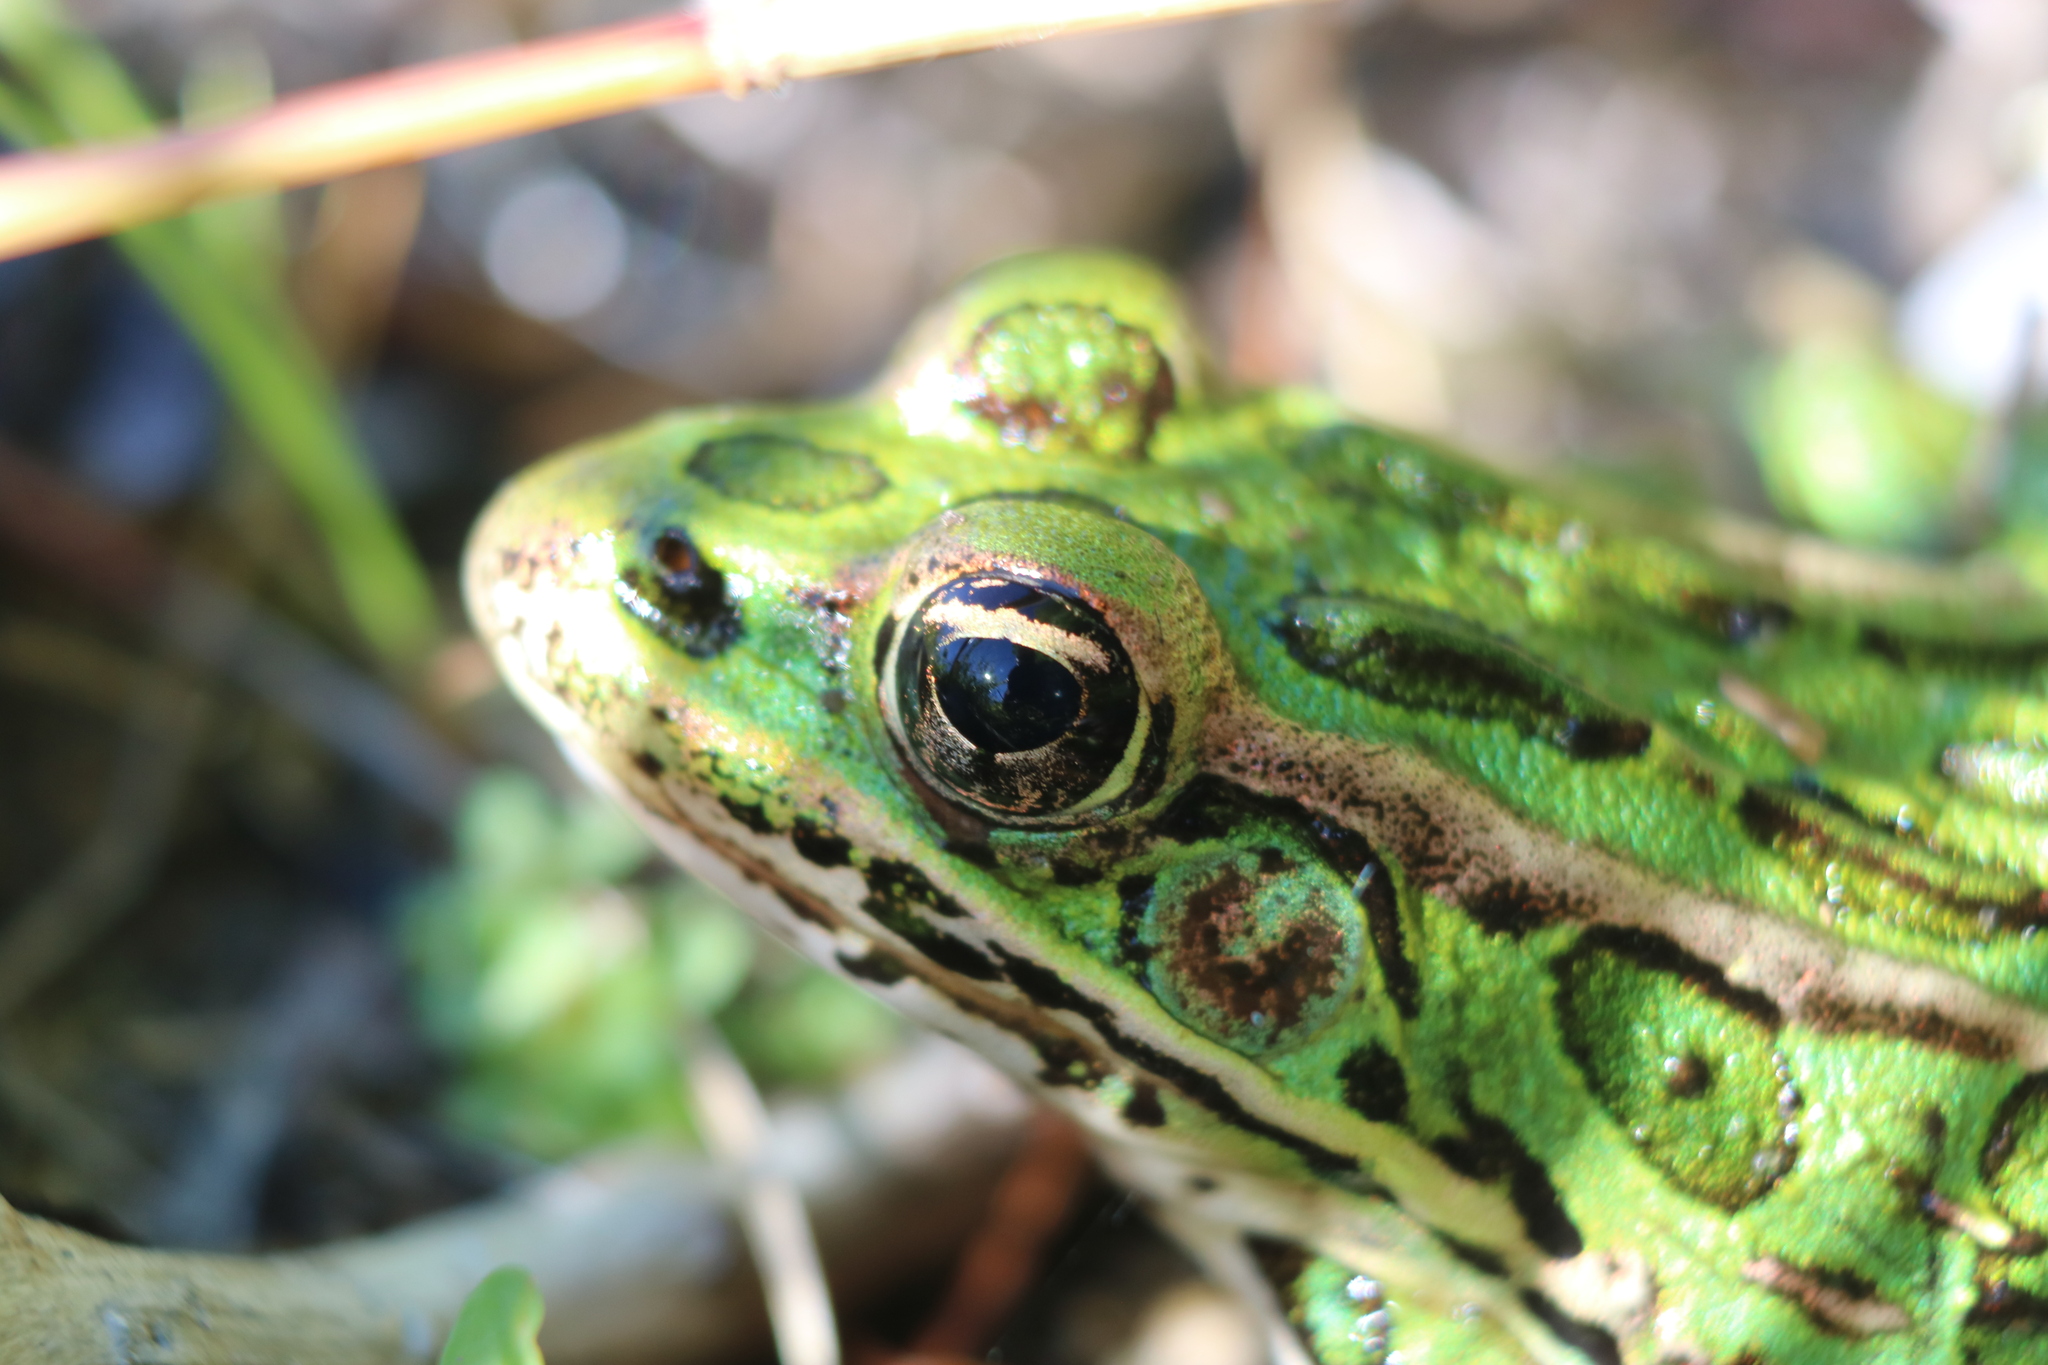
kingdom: Animalia
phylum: Chordata
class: Amphibia
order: Anura
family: Ranidae
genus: Lithobates
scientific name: Lithobates pipiens
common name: Northern leopard frog
